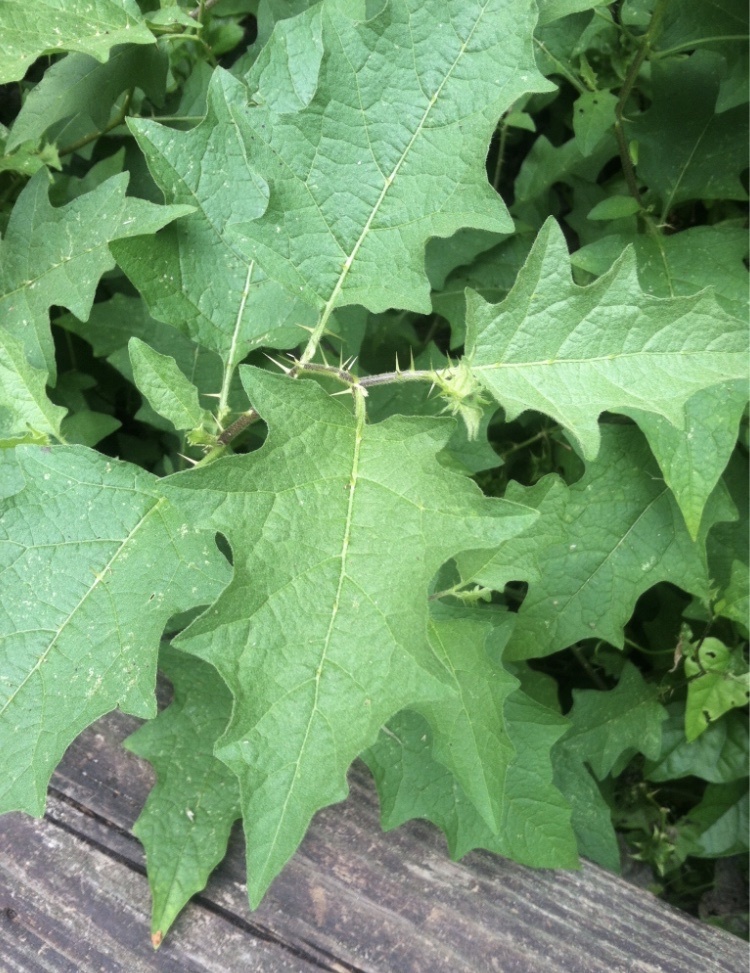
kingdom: Plantae
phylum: Tracheophyta
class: Magnoliopsida
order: Solanales
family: Solanaceae
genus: Solanum
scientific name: Solanum carolinense
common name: Horse-nettle
